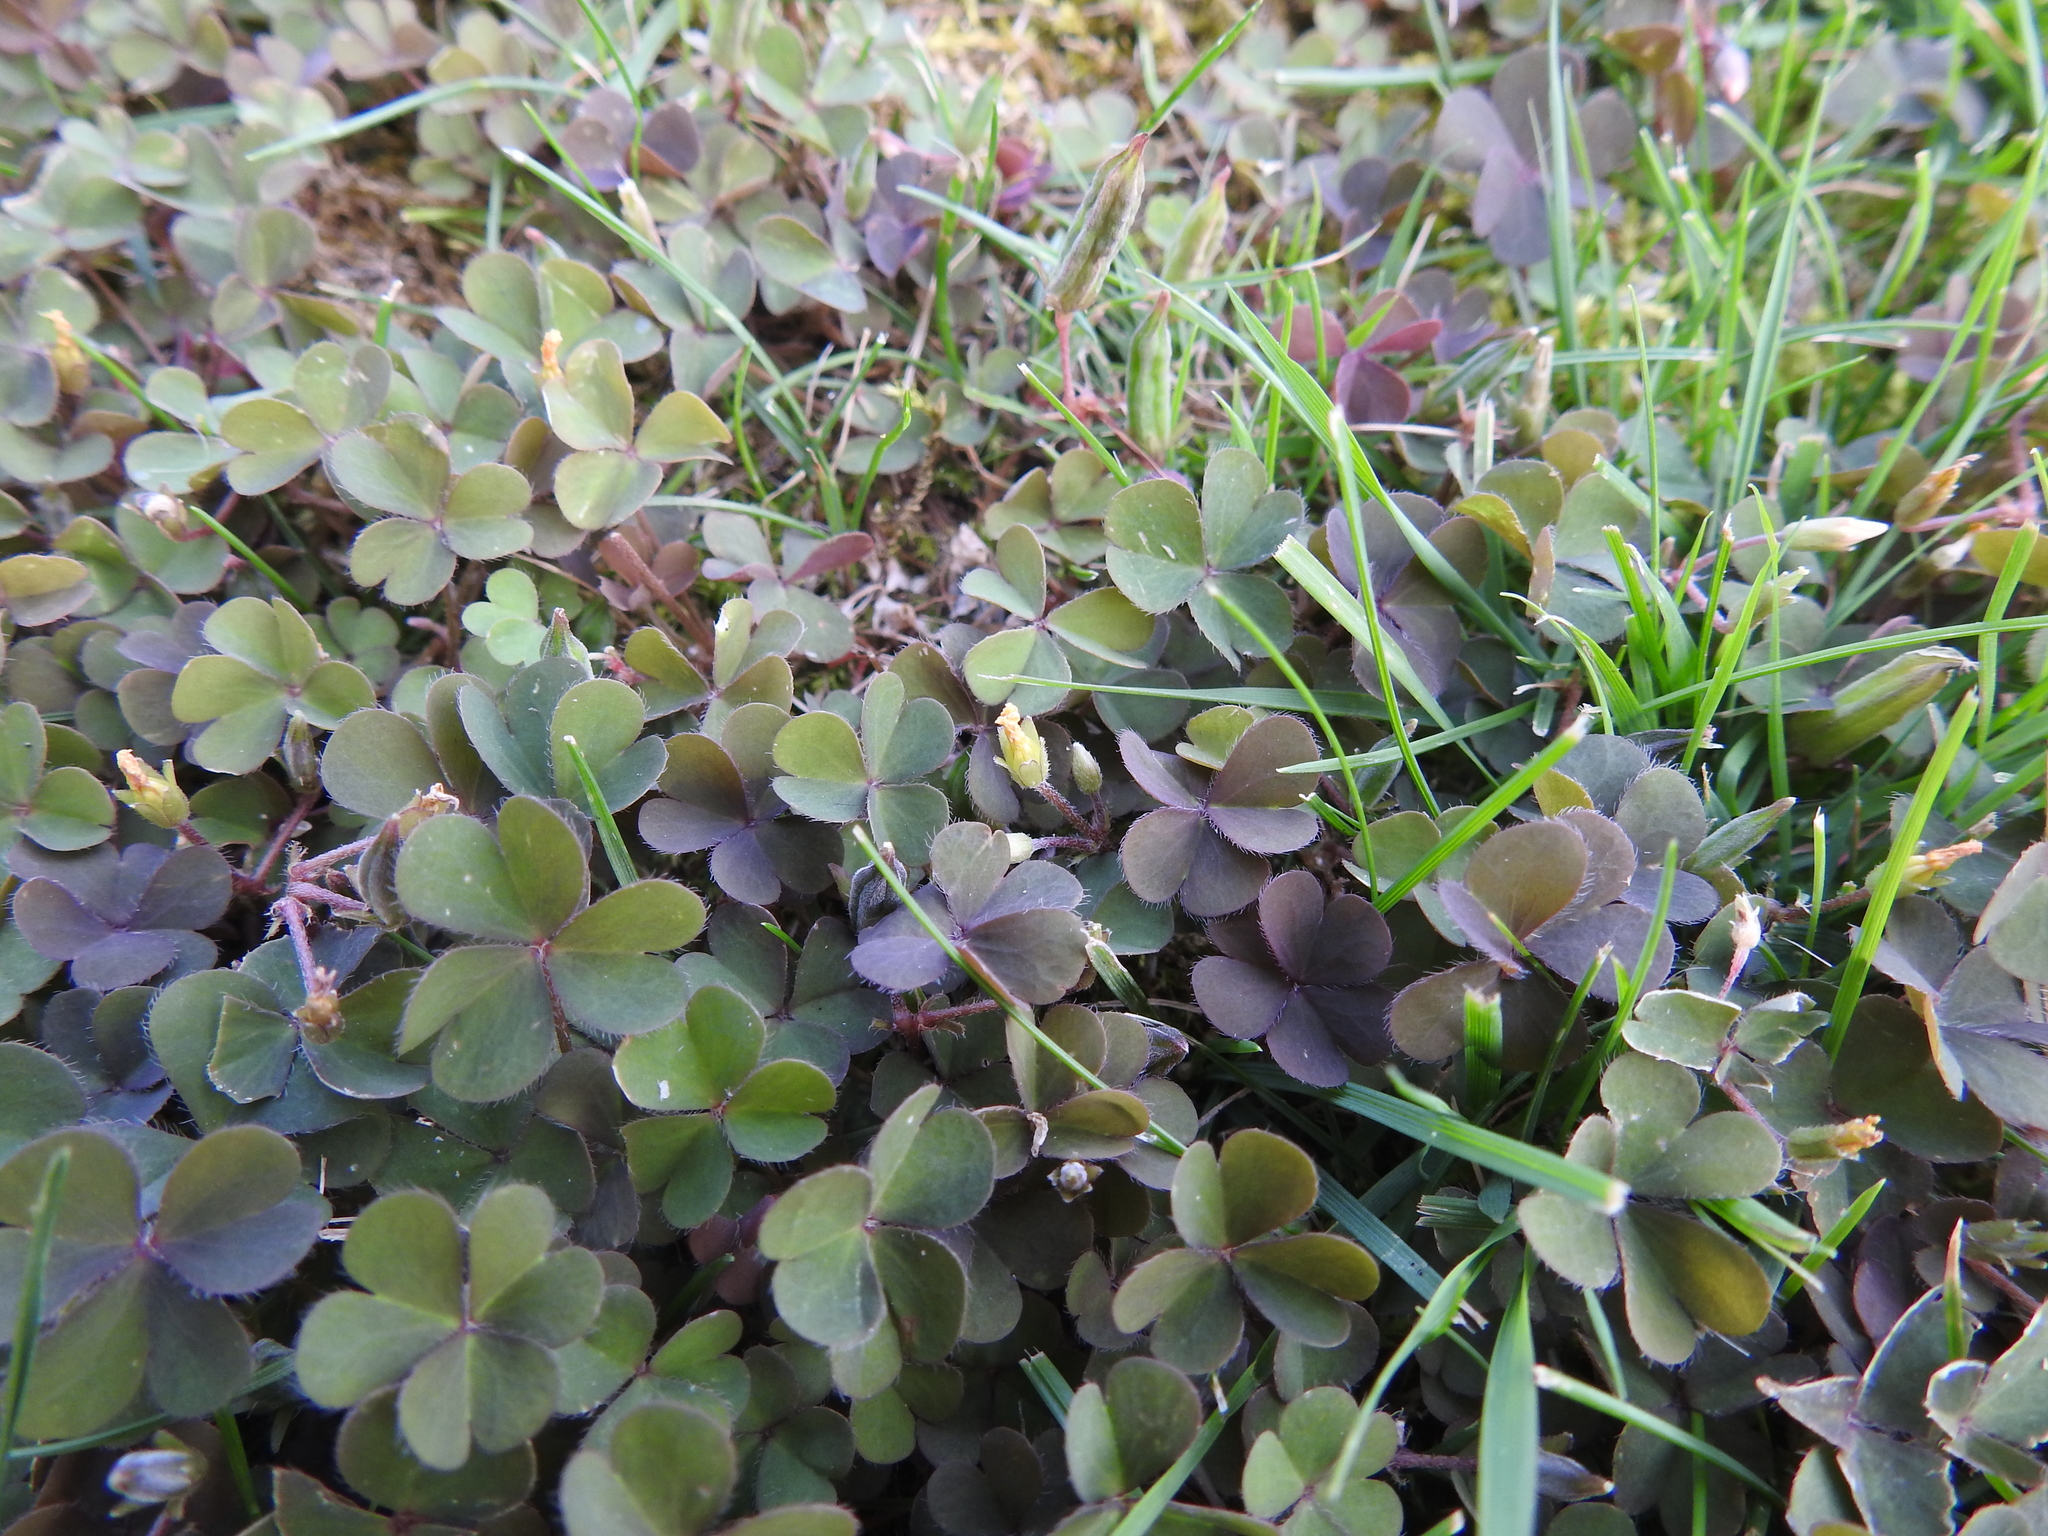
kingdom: Plantae
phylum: Tracheophyta
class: Magnoliopsida
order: Oxalidales
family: Oxalidaceae
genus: Oxalis
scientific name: Oxalis corniculata
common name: Procumbent yellow-sorrel
